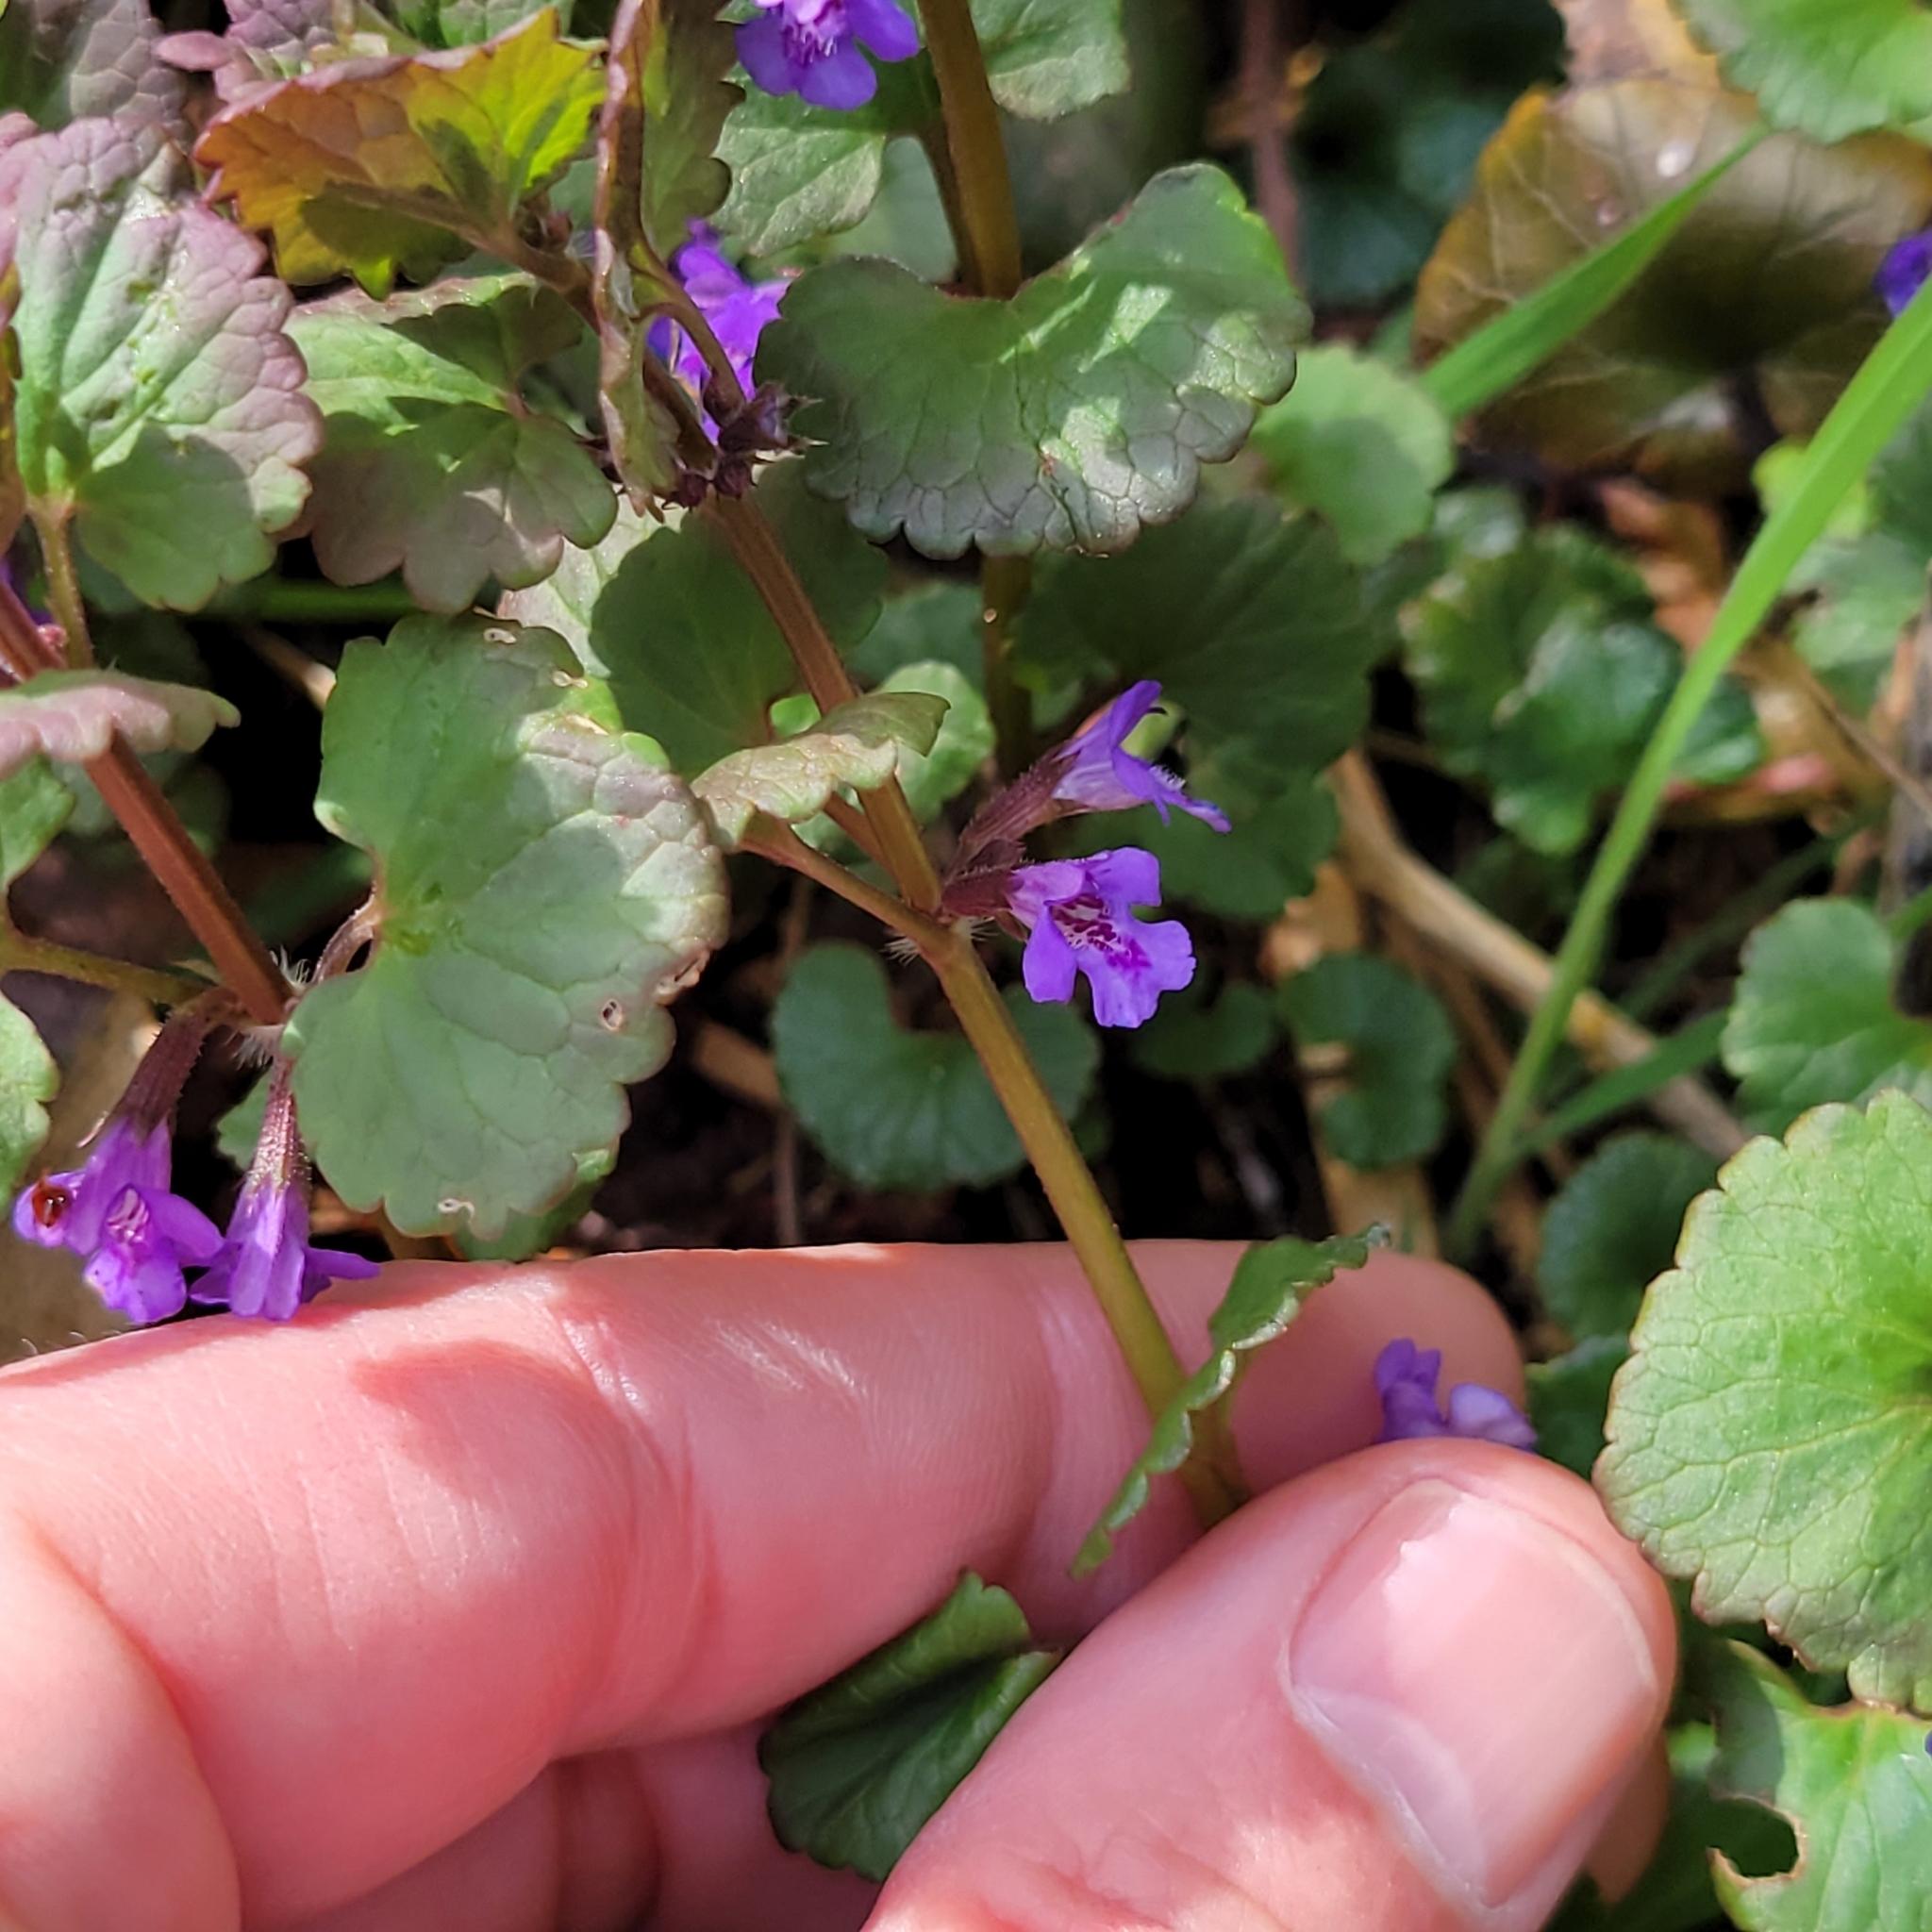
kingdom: Plantae
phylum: Tracheophyta
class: Magnoliopsida
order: Lamiales
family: Lamiaceae
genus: Glechoma
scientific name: Glechoma hederacea
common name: Ground ivy
